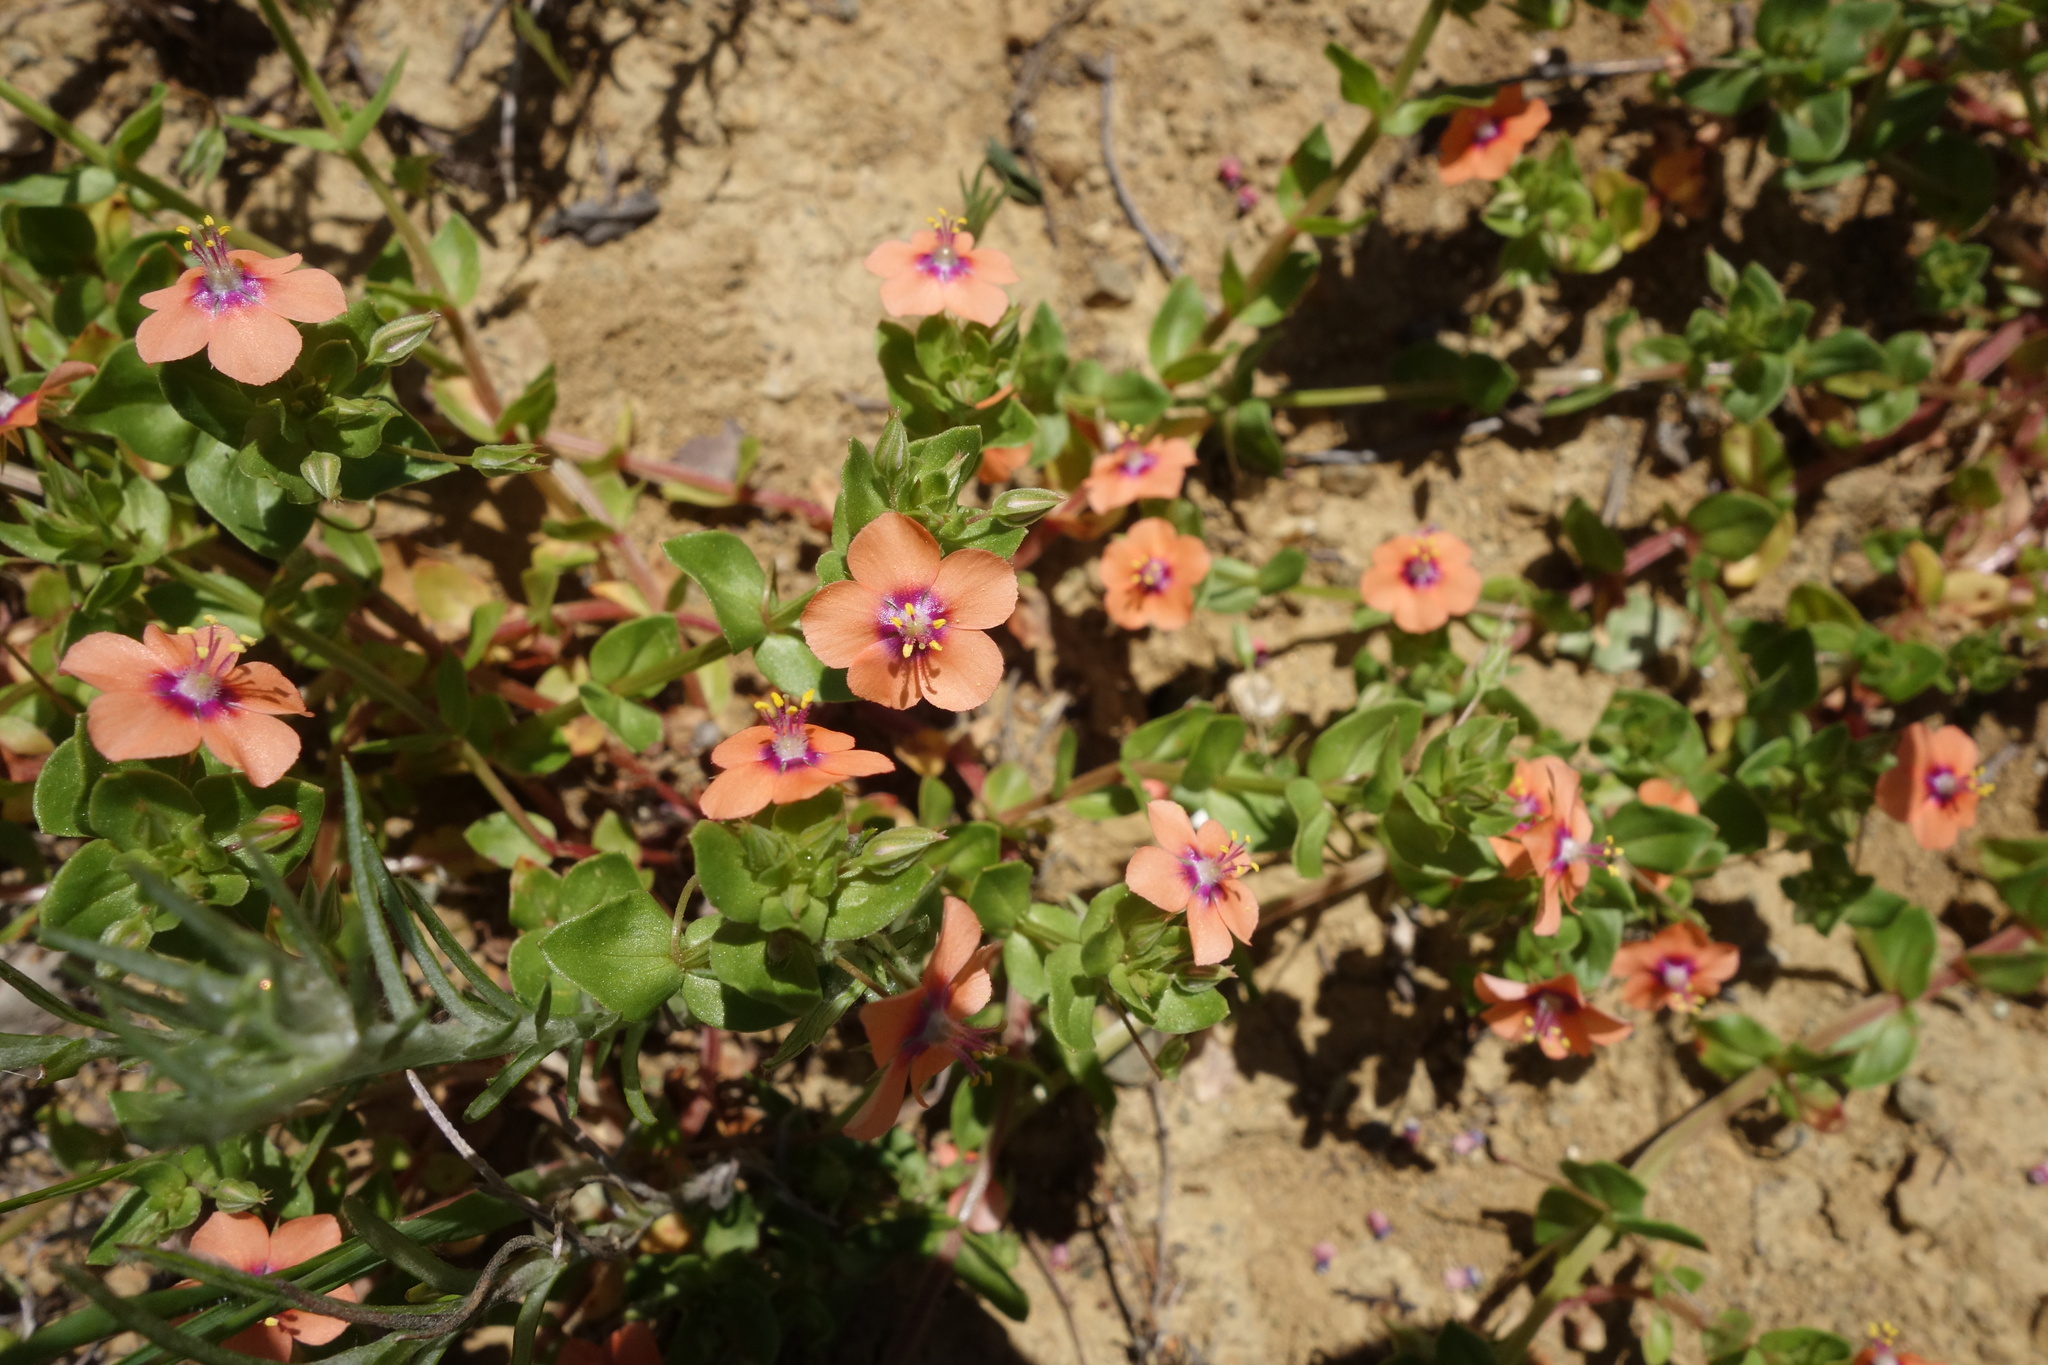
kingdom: Plantae
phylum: Tracheophyta
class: Magnoliopsida
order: Ericales
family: Primulaceae
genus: Lysimachia
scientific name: Lysimachia arvensis
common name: Scarlet pimpernel
